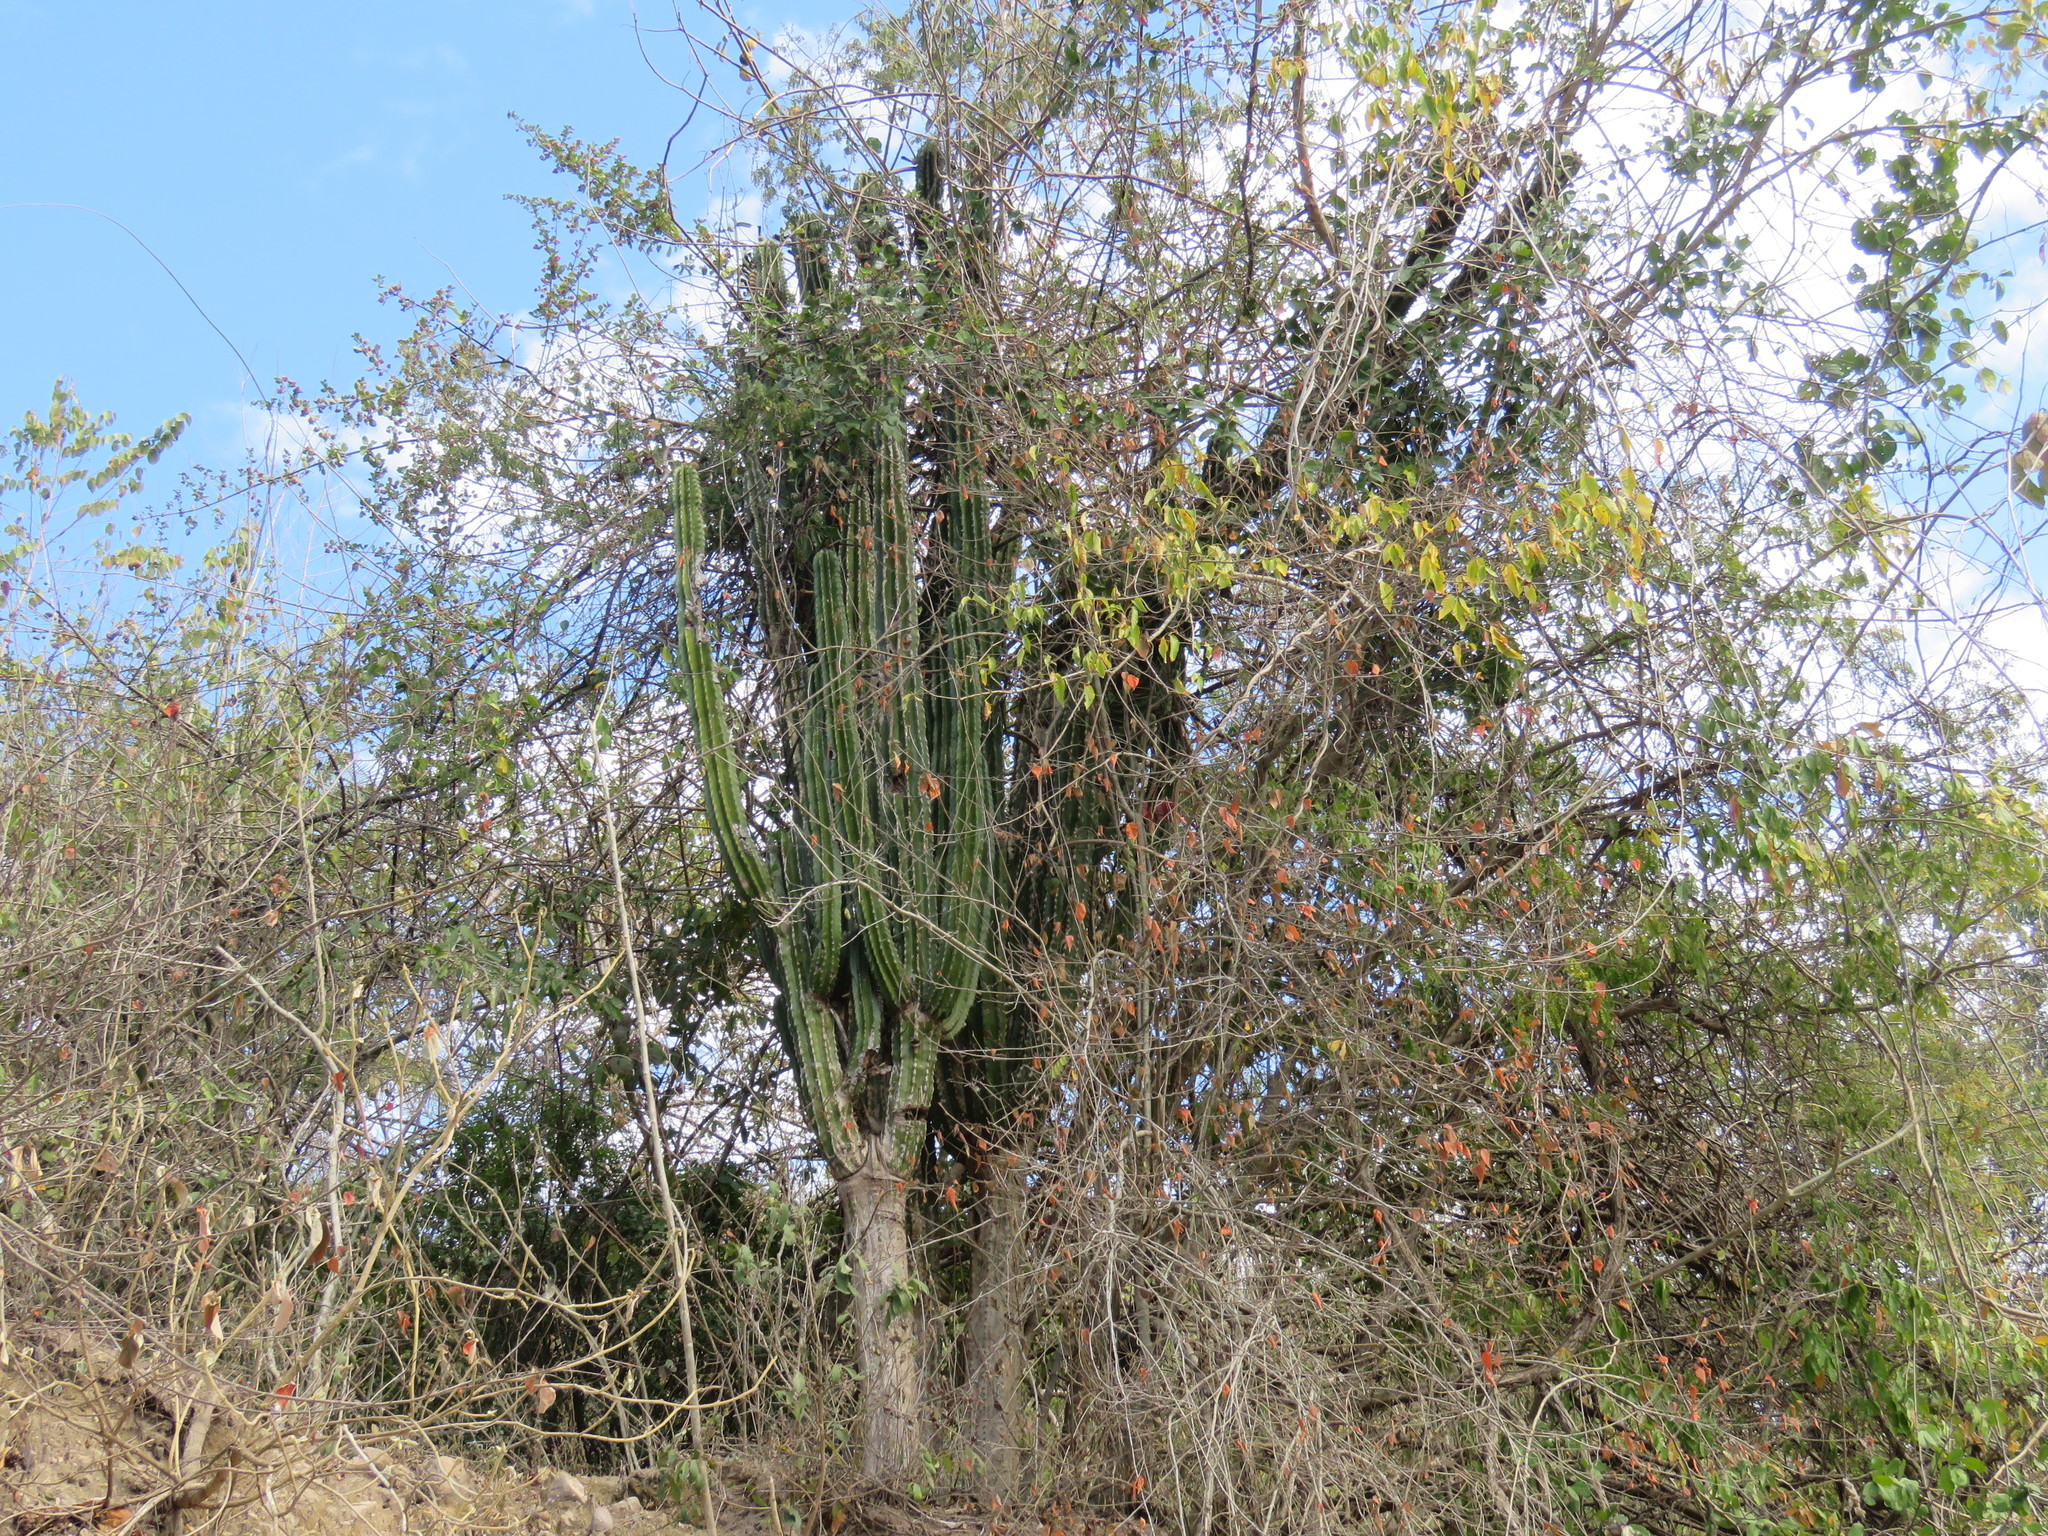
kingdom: Plantae
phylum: Tracheophyta
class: Magnoliopsida
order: Caryophyllales
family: Cactaceae
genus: Pachycereus
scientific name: Pachycereus pecten-aboriginum
